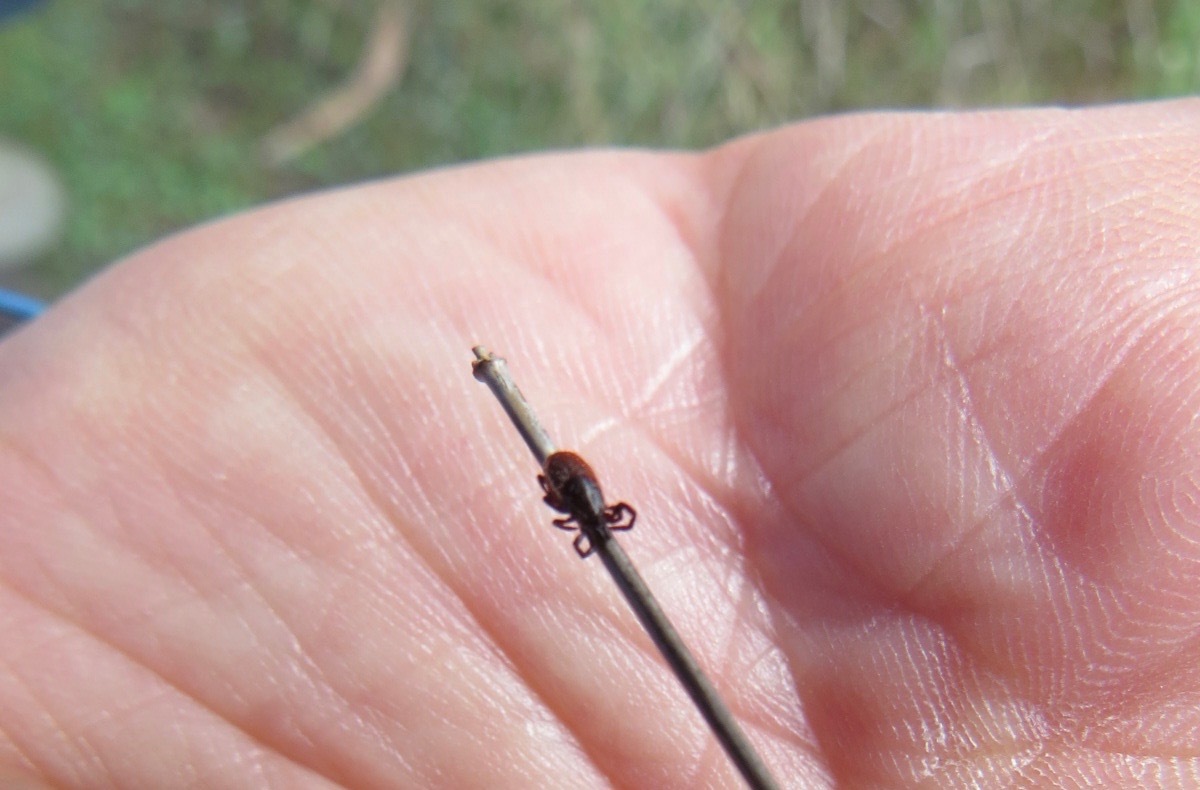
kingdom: Animalia
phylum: Arthropoda
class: Arachnida
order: Ixodida
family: Ixodidae
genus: Ixodes
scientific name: Ixodes pacificus
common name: California black-legged tick
